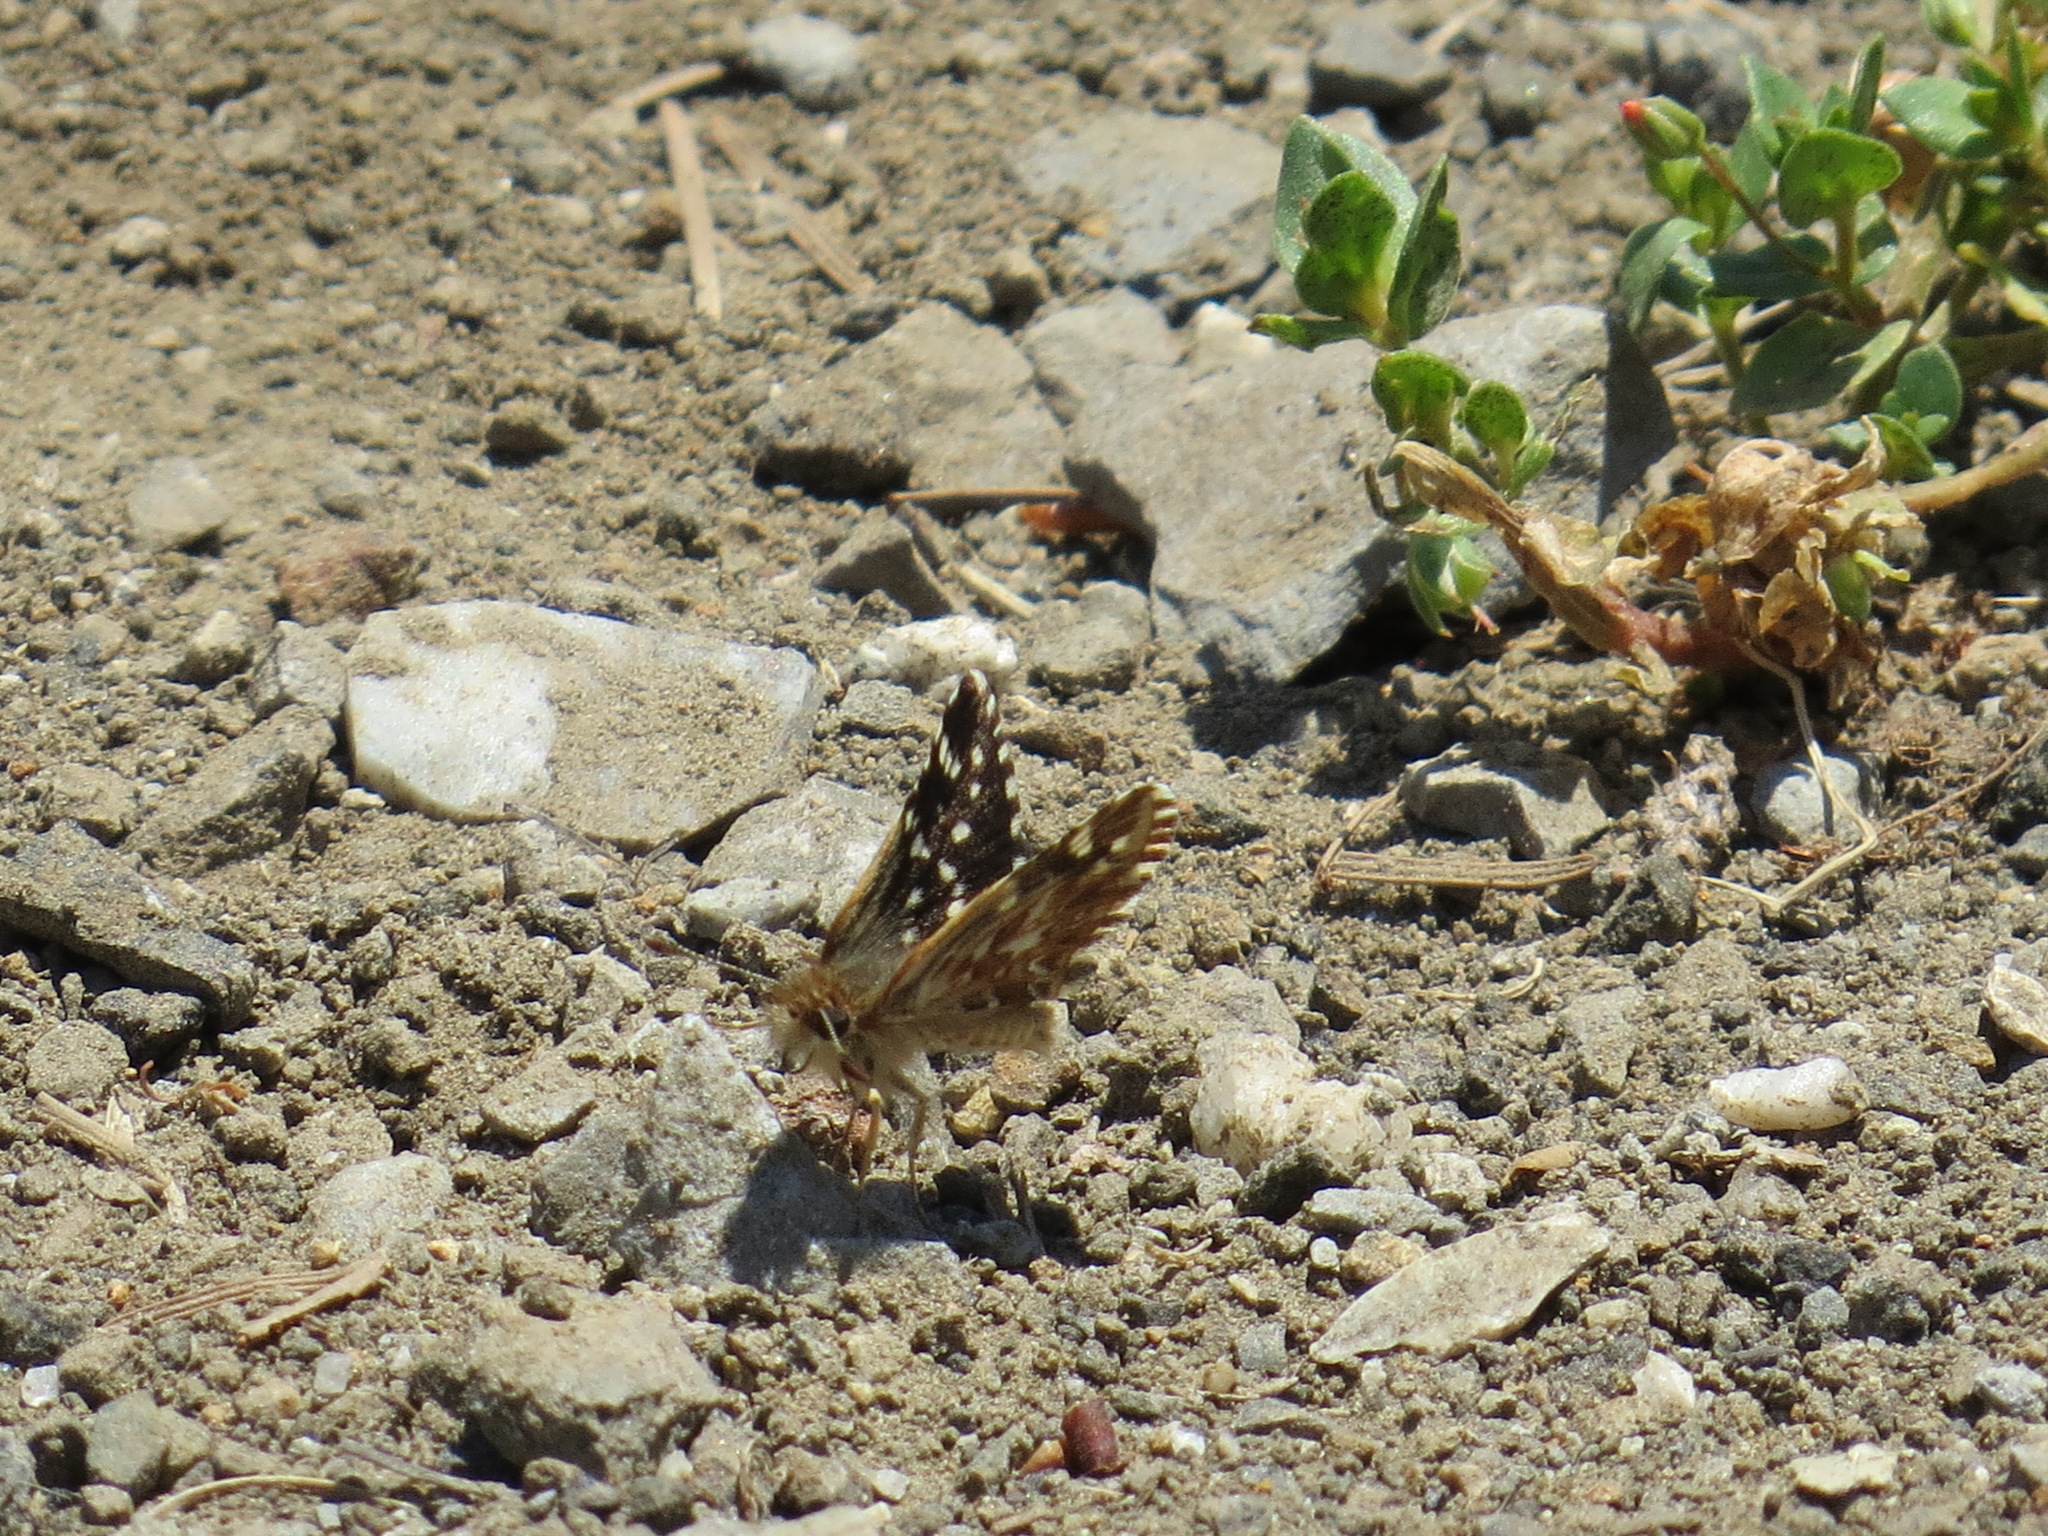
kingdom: Animalia
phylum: Arthropoda
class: Insecta
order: Lepidoptera
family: Hesperiidae
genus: Pyrgus
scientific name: Pyrgus ruralis
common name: Two-banded checkered-skipper
